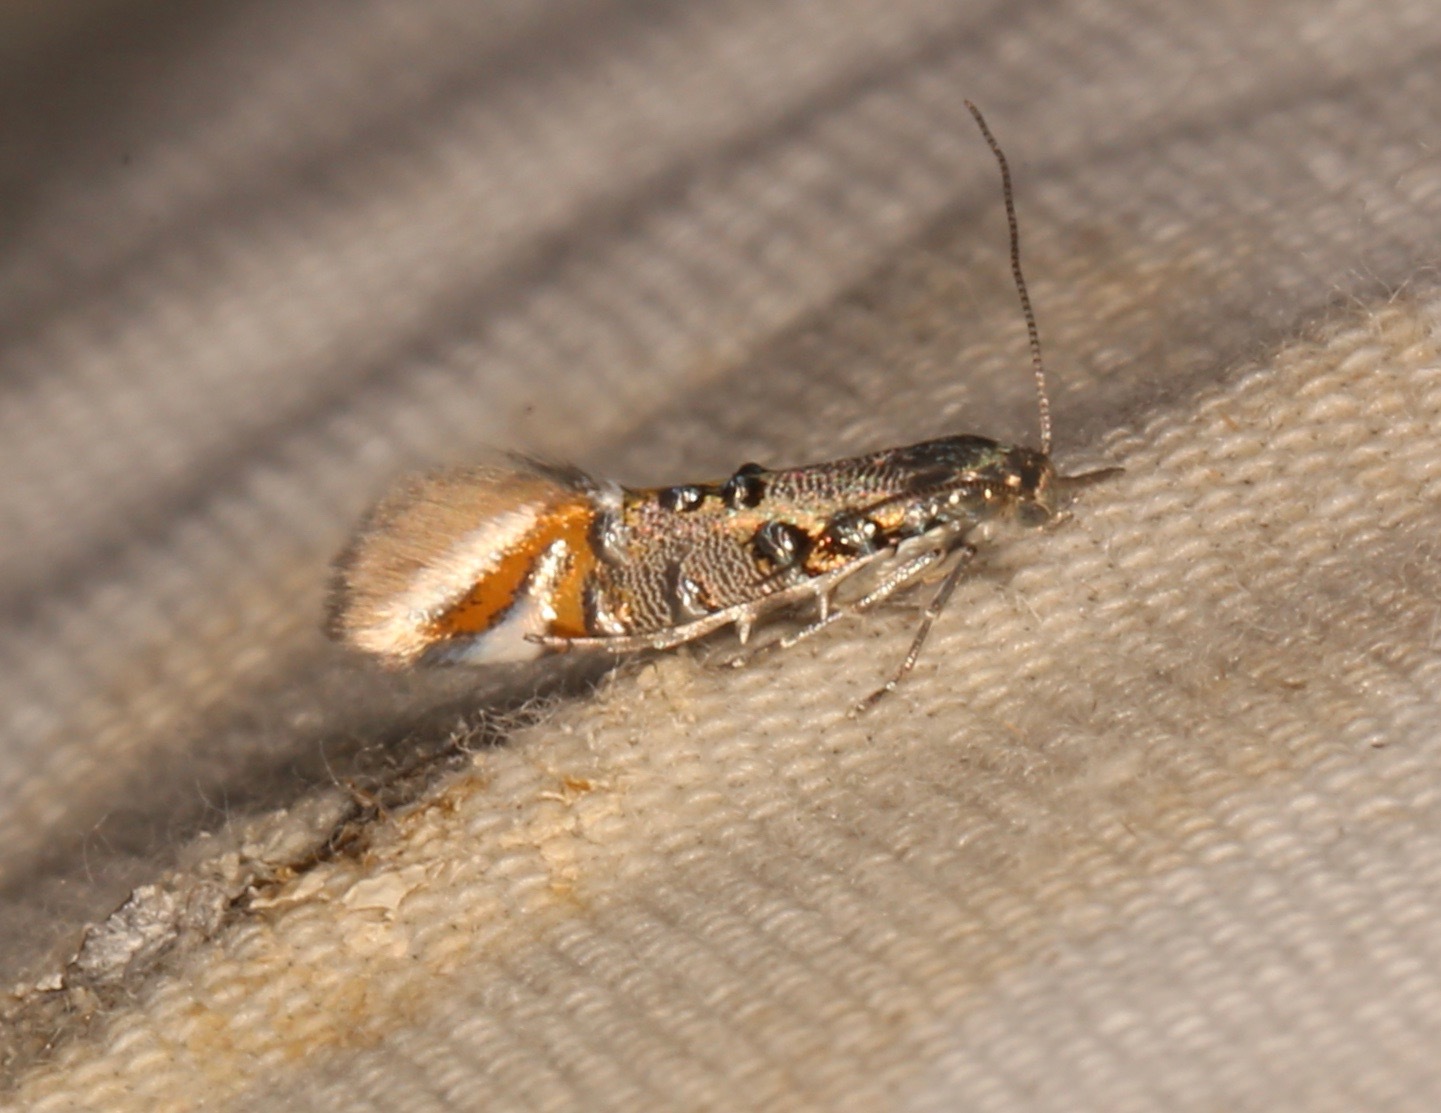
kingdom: Animalia
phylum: Arthropoda
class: Insecta
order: Lepidoptera
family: Heliodinidae
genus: Lithariapteryx
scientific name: Lithariapteryx abroniaeella
